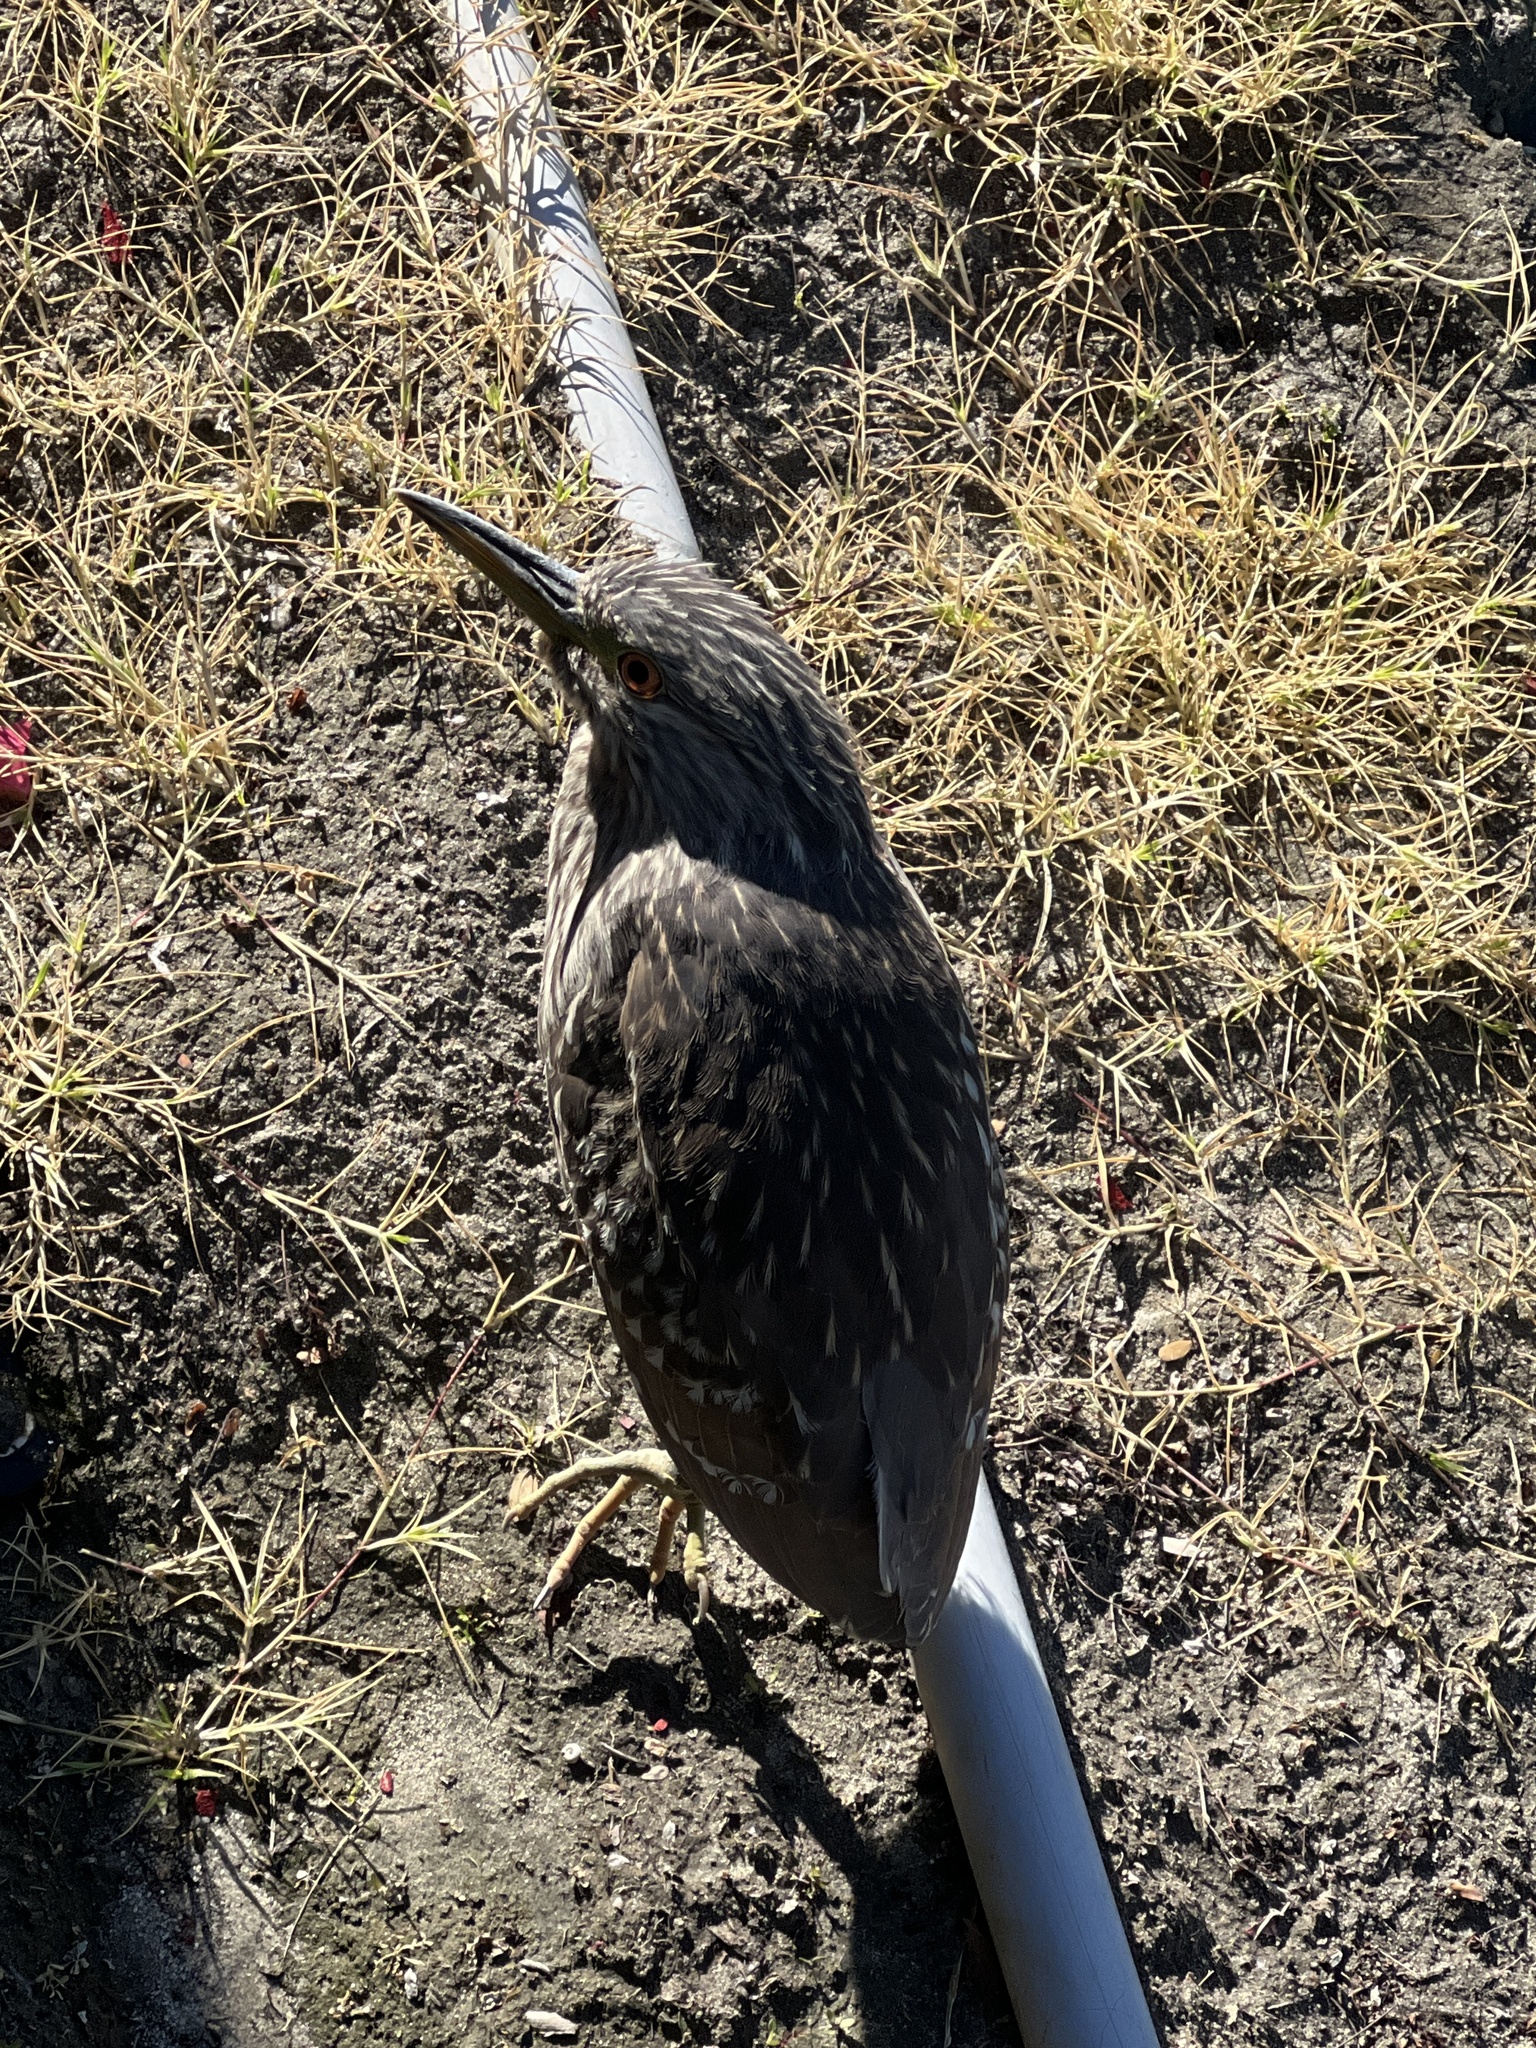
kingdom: Animalia
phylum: Chordata
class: Aves
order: Pelecaniformes
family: Ardeidae
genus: Nycticorax
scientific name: Nycticorax nycticorax
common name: Black-crowned night heron
